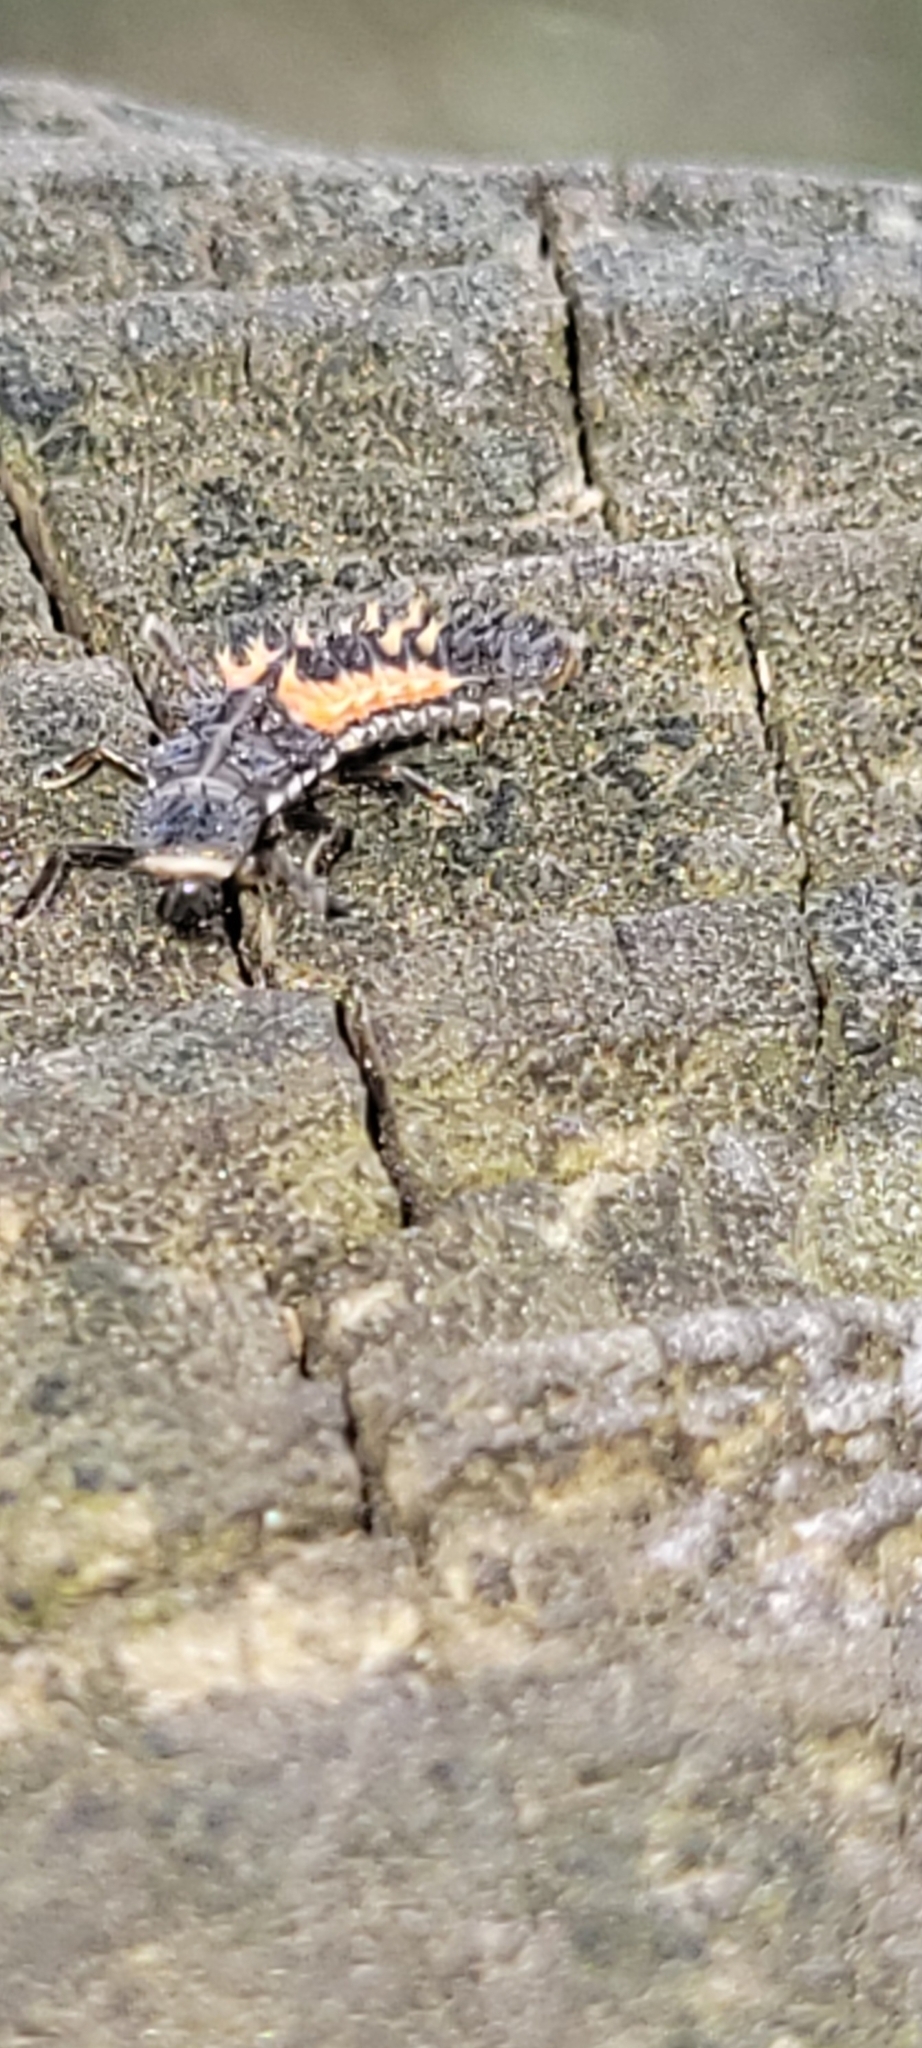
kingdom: Animalia
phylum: Arthropoda
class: Insecta
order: Coleoptera
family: Coccinellidae
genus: Harmonia
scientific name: Harmonia axyridis
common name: Harlequin ladybird
